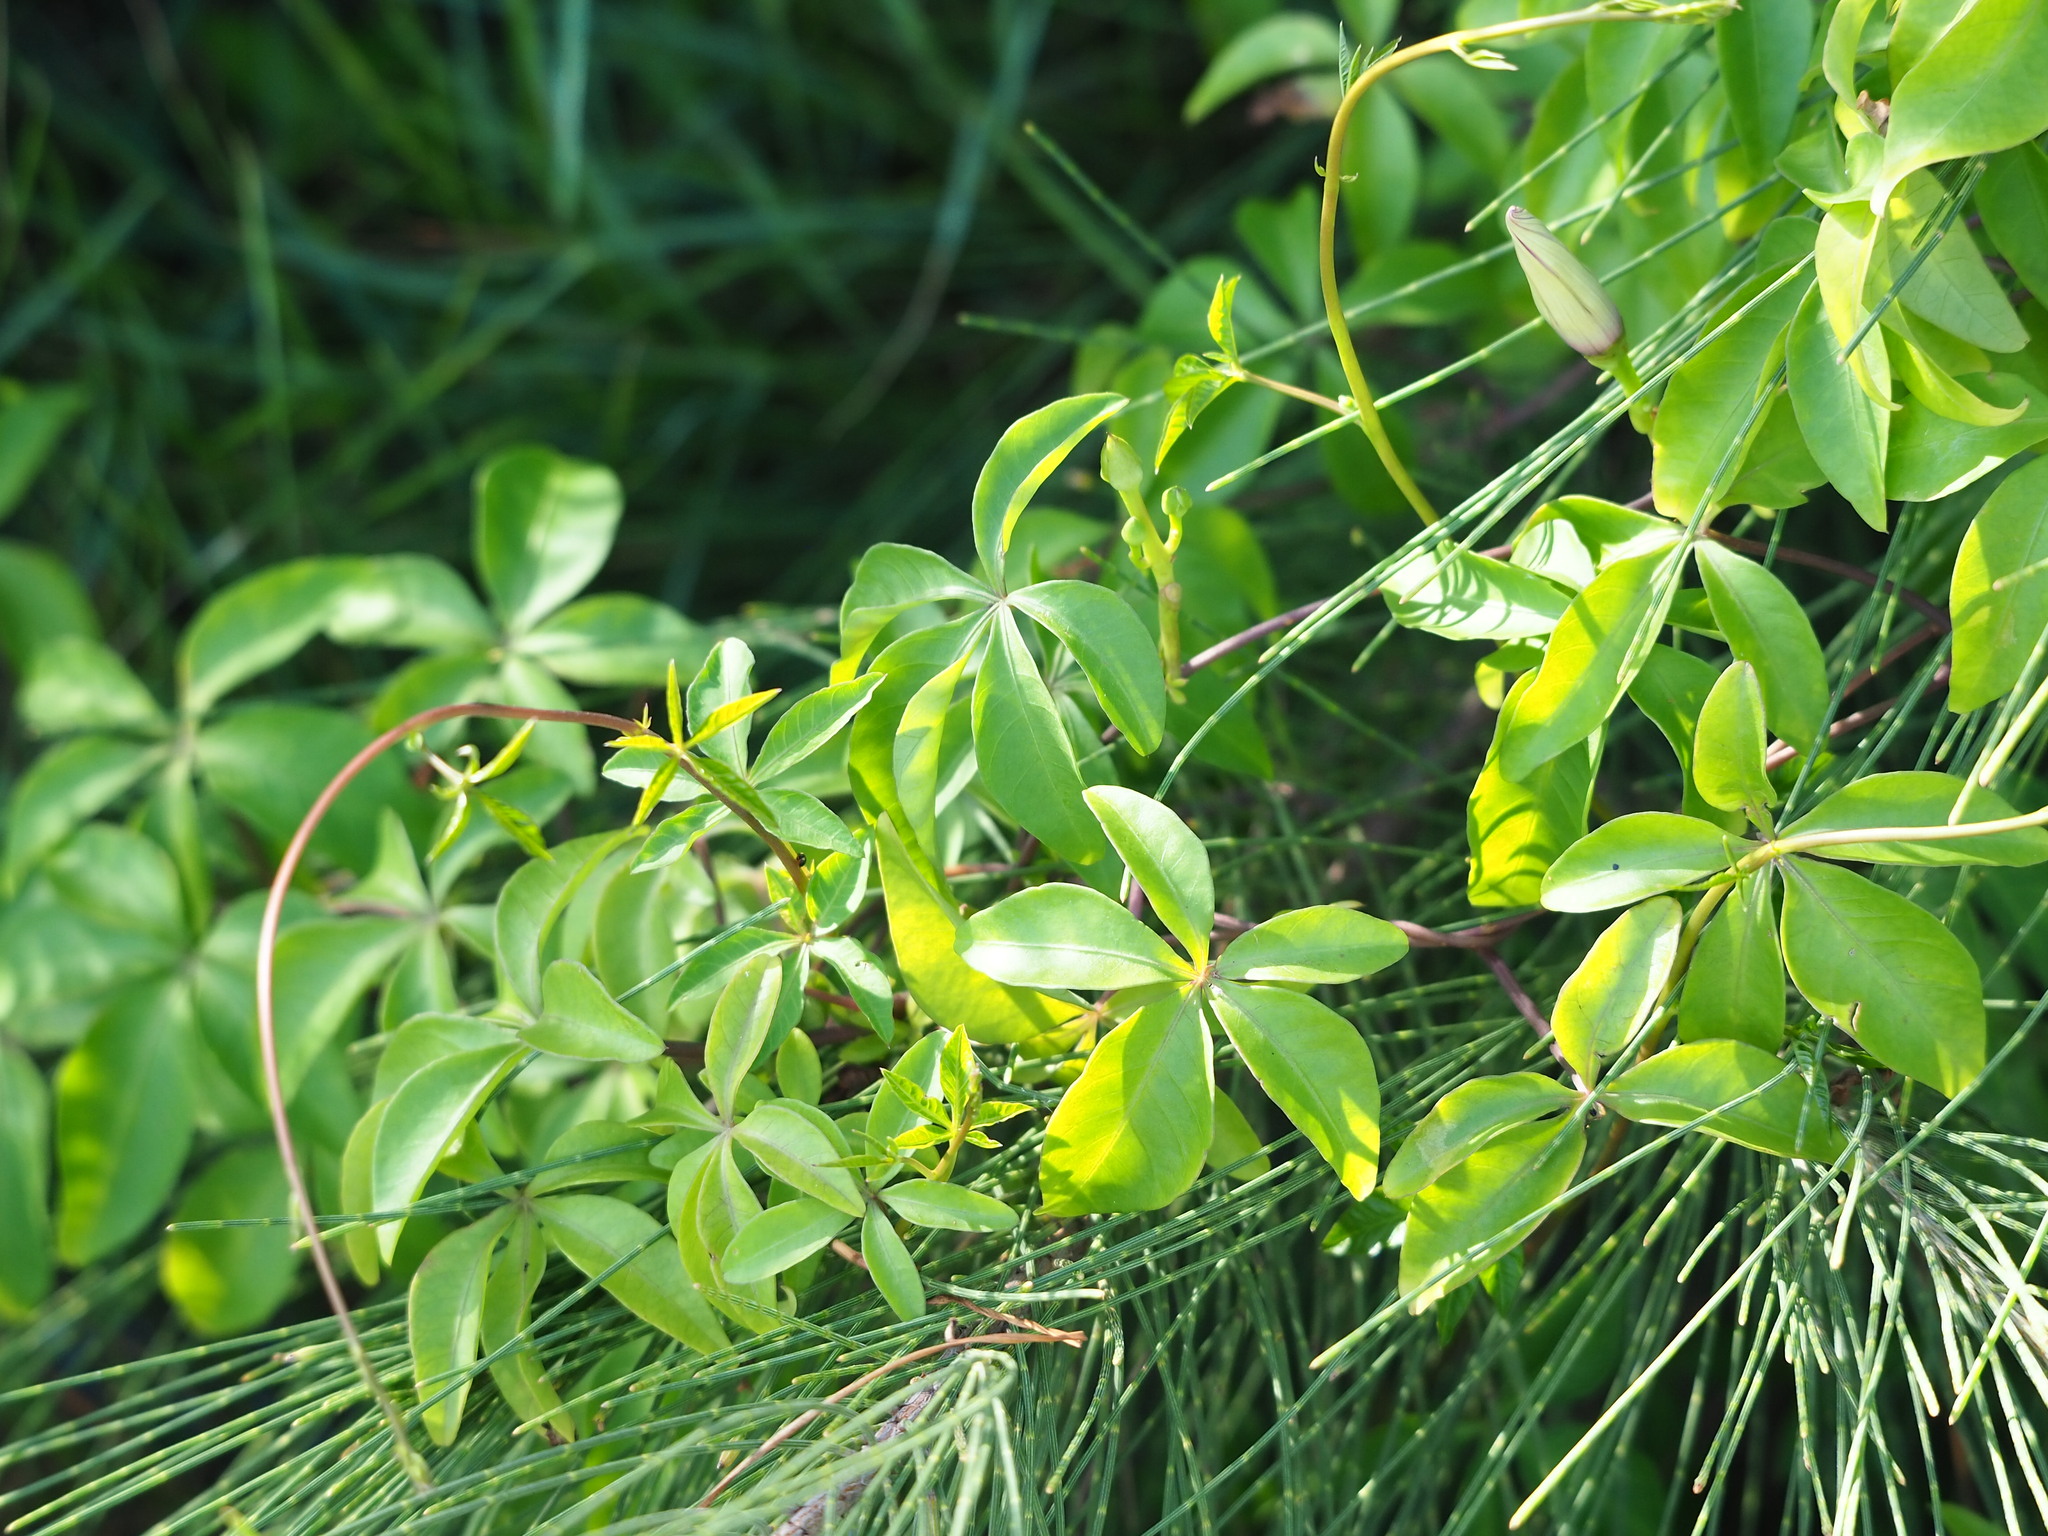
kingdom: Plantae
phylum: Tracheophyta
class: Magnoliopsida
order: Solanales
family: Convolvulaceae
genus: Ipomoea
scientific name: Ipomoea cairica
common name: Mile a minute vine
